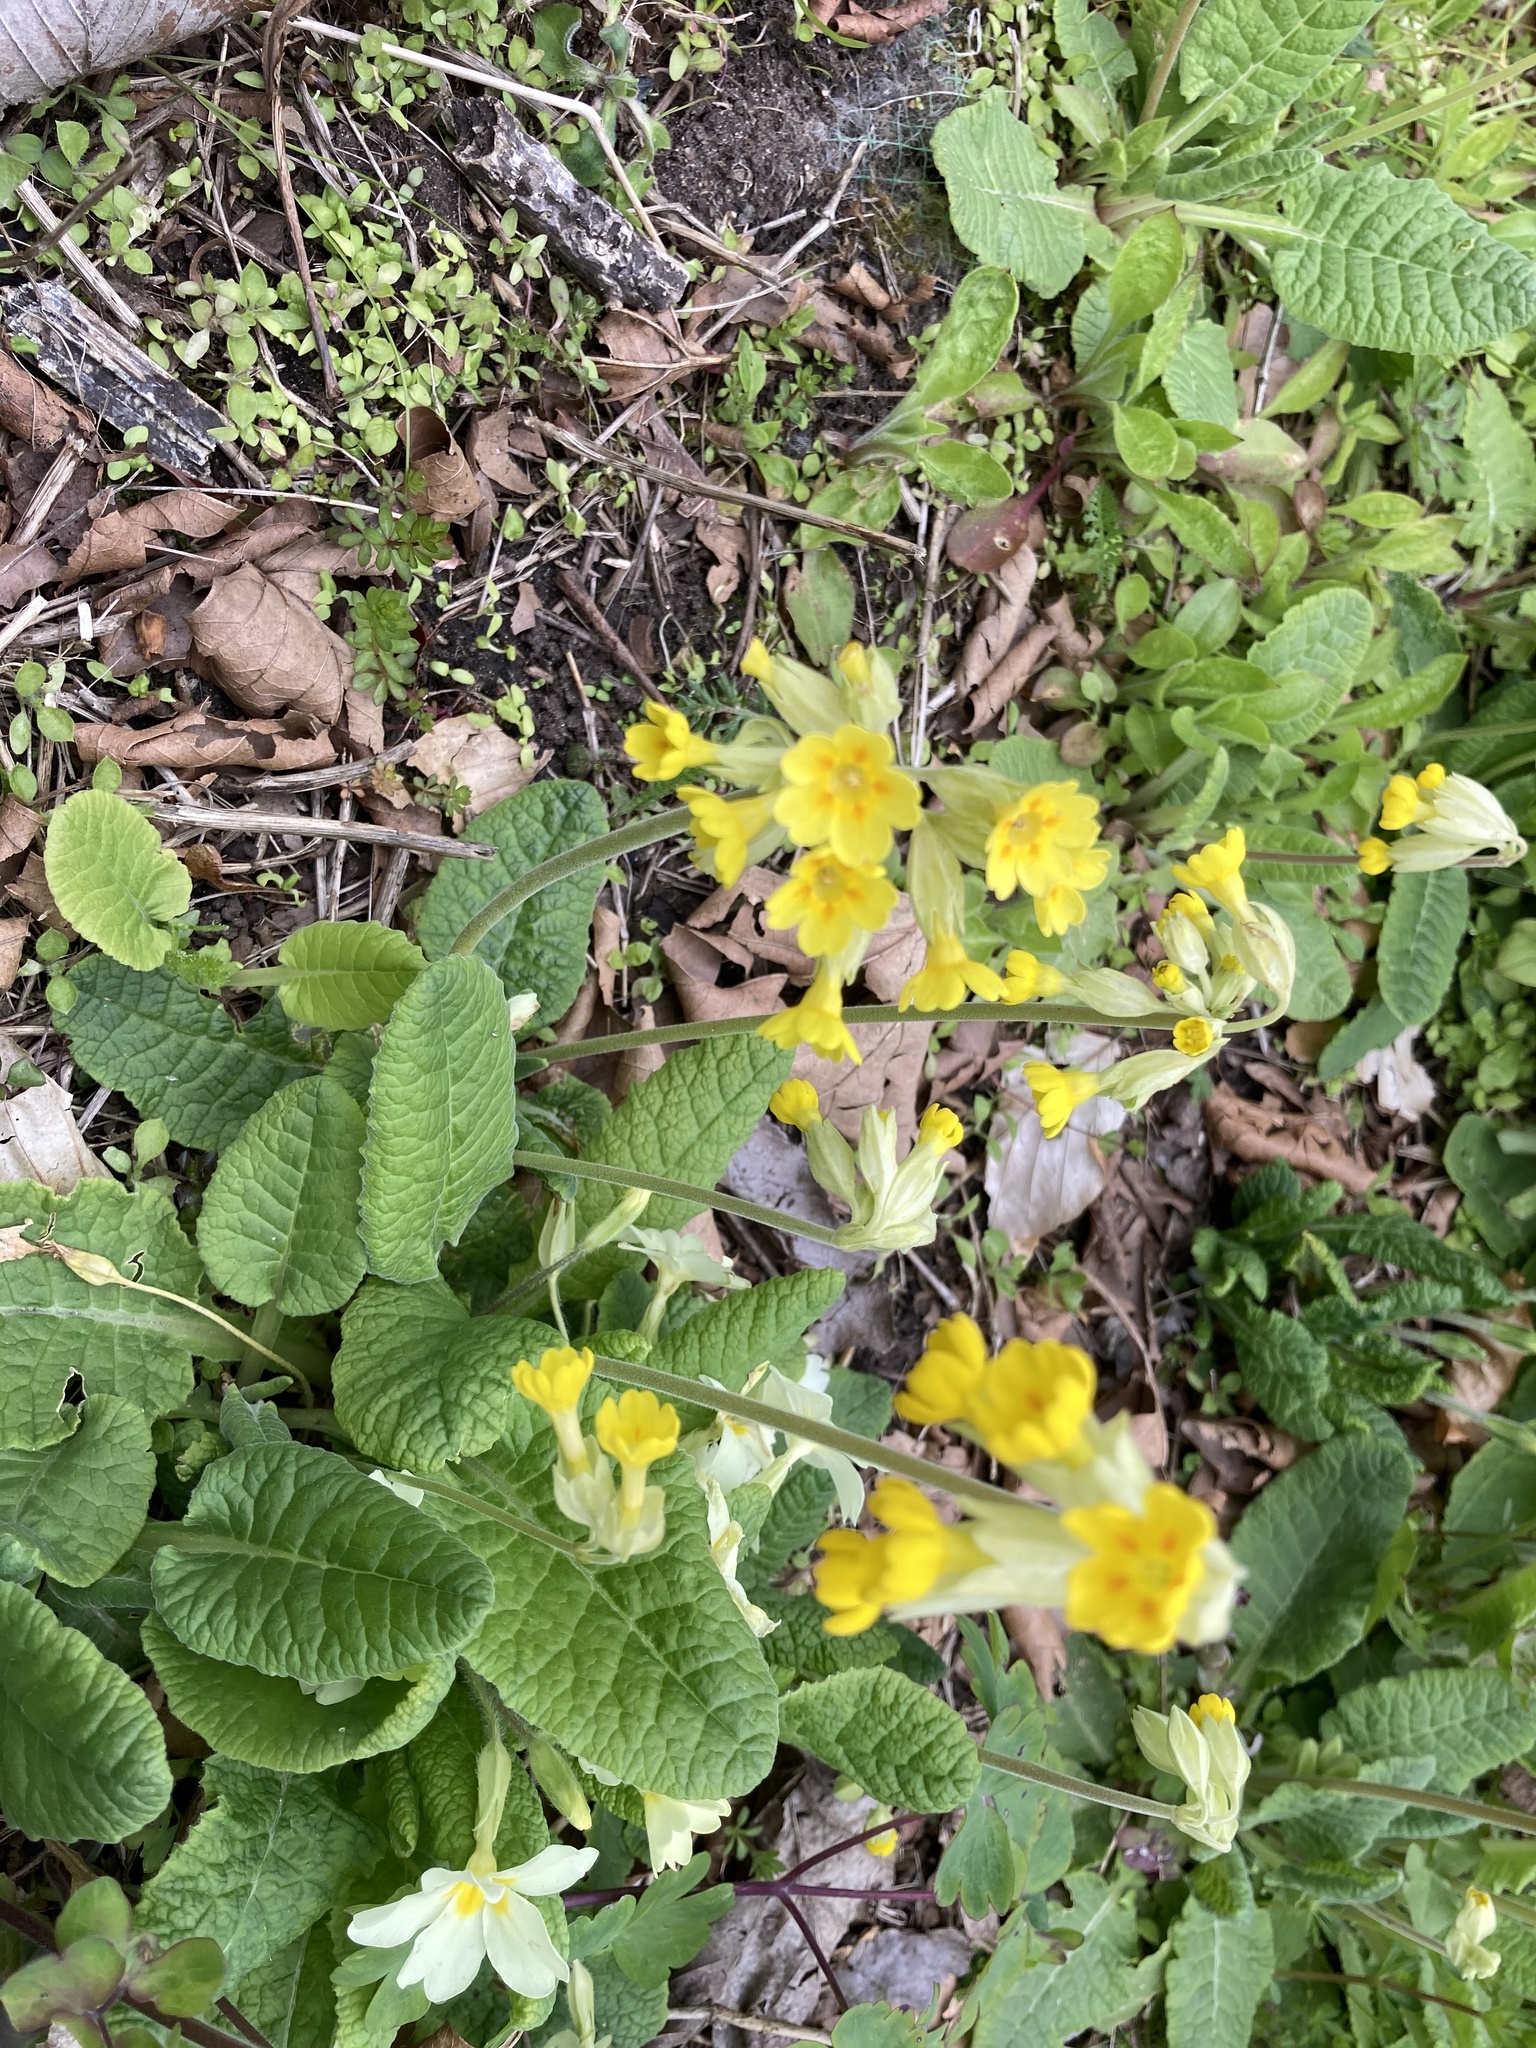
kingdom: Plantae
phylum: Tracheophyta
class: Magnoliopsida
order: Ericales
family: Primulaceae
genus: Primula
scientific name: Primula veris
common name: Cowslip
